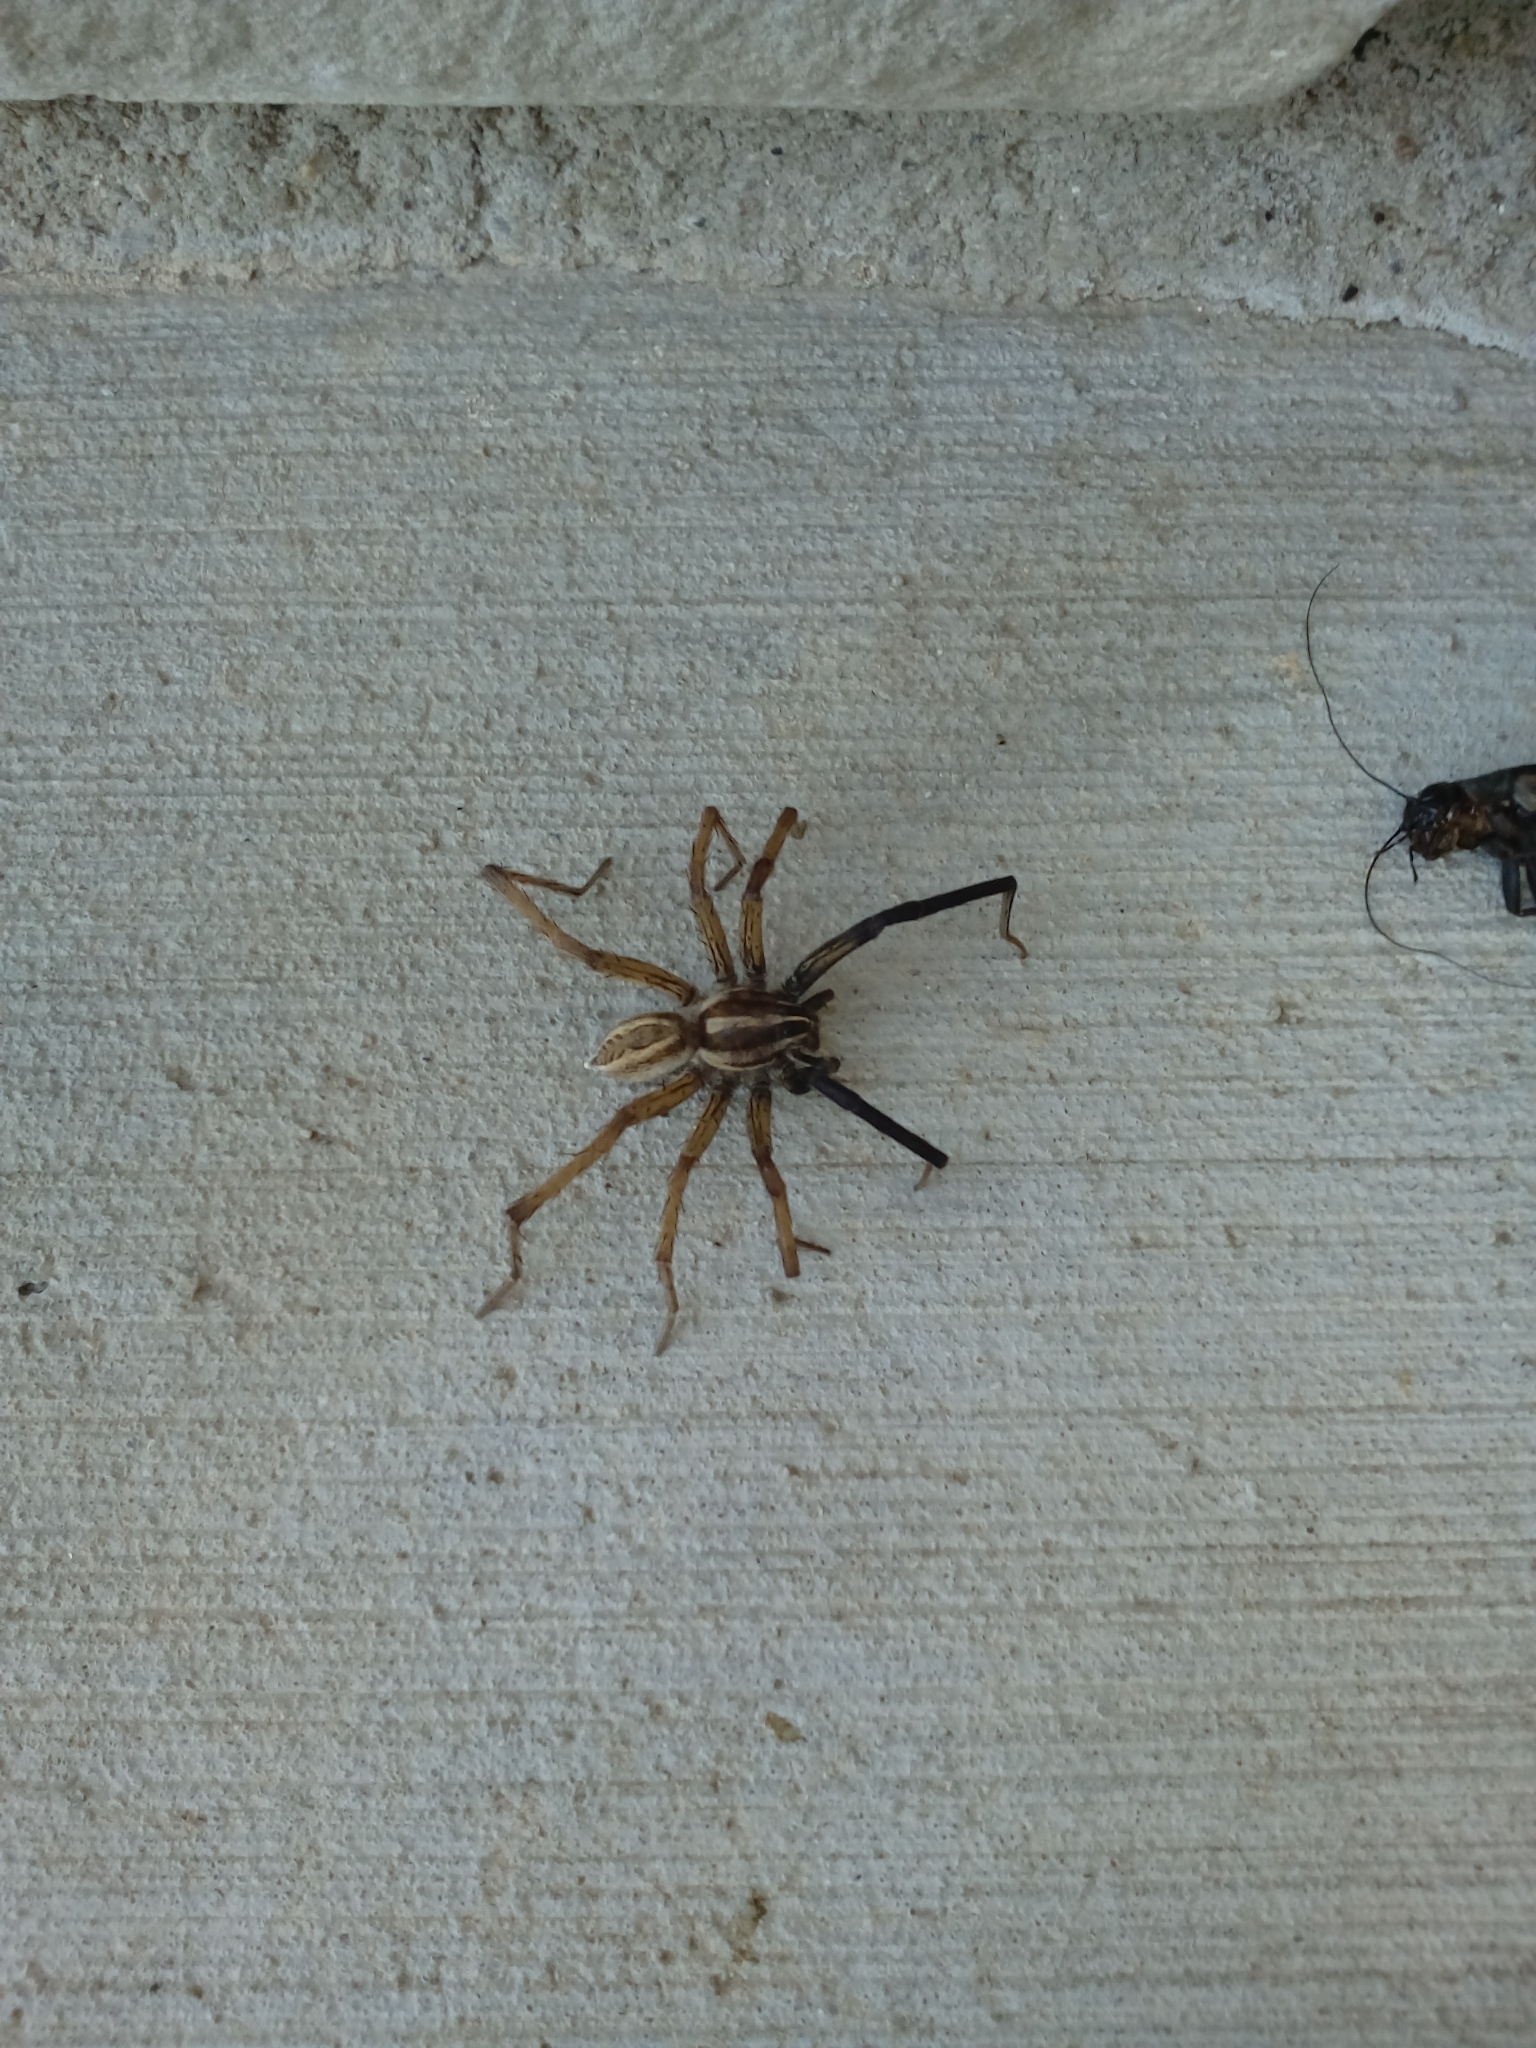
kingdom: Animalia
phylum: Arthropoda
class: Arachnida
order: Araneae
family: Lycosidae
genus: Rabidosa
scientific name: Rabidosa rabida
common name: Rabid wolf spider
